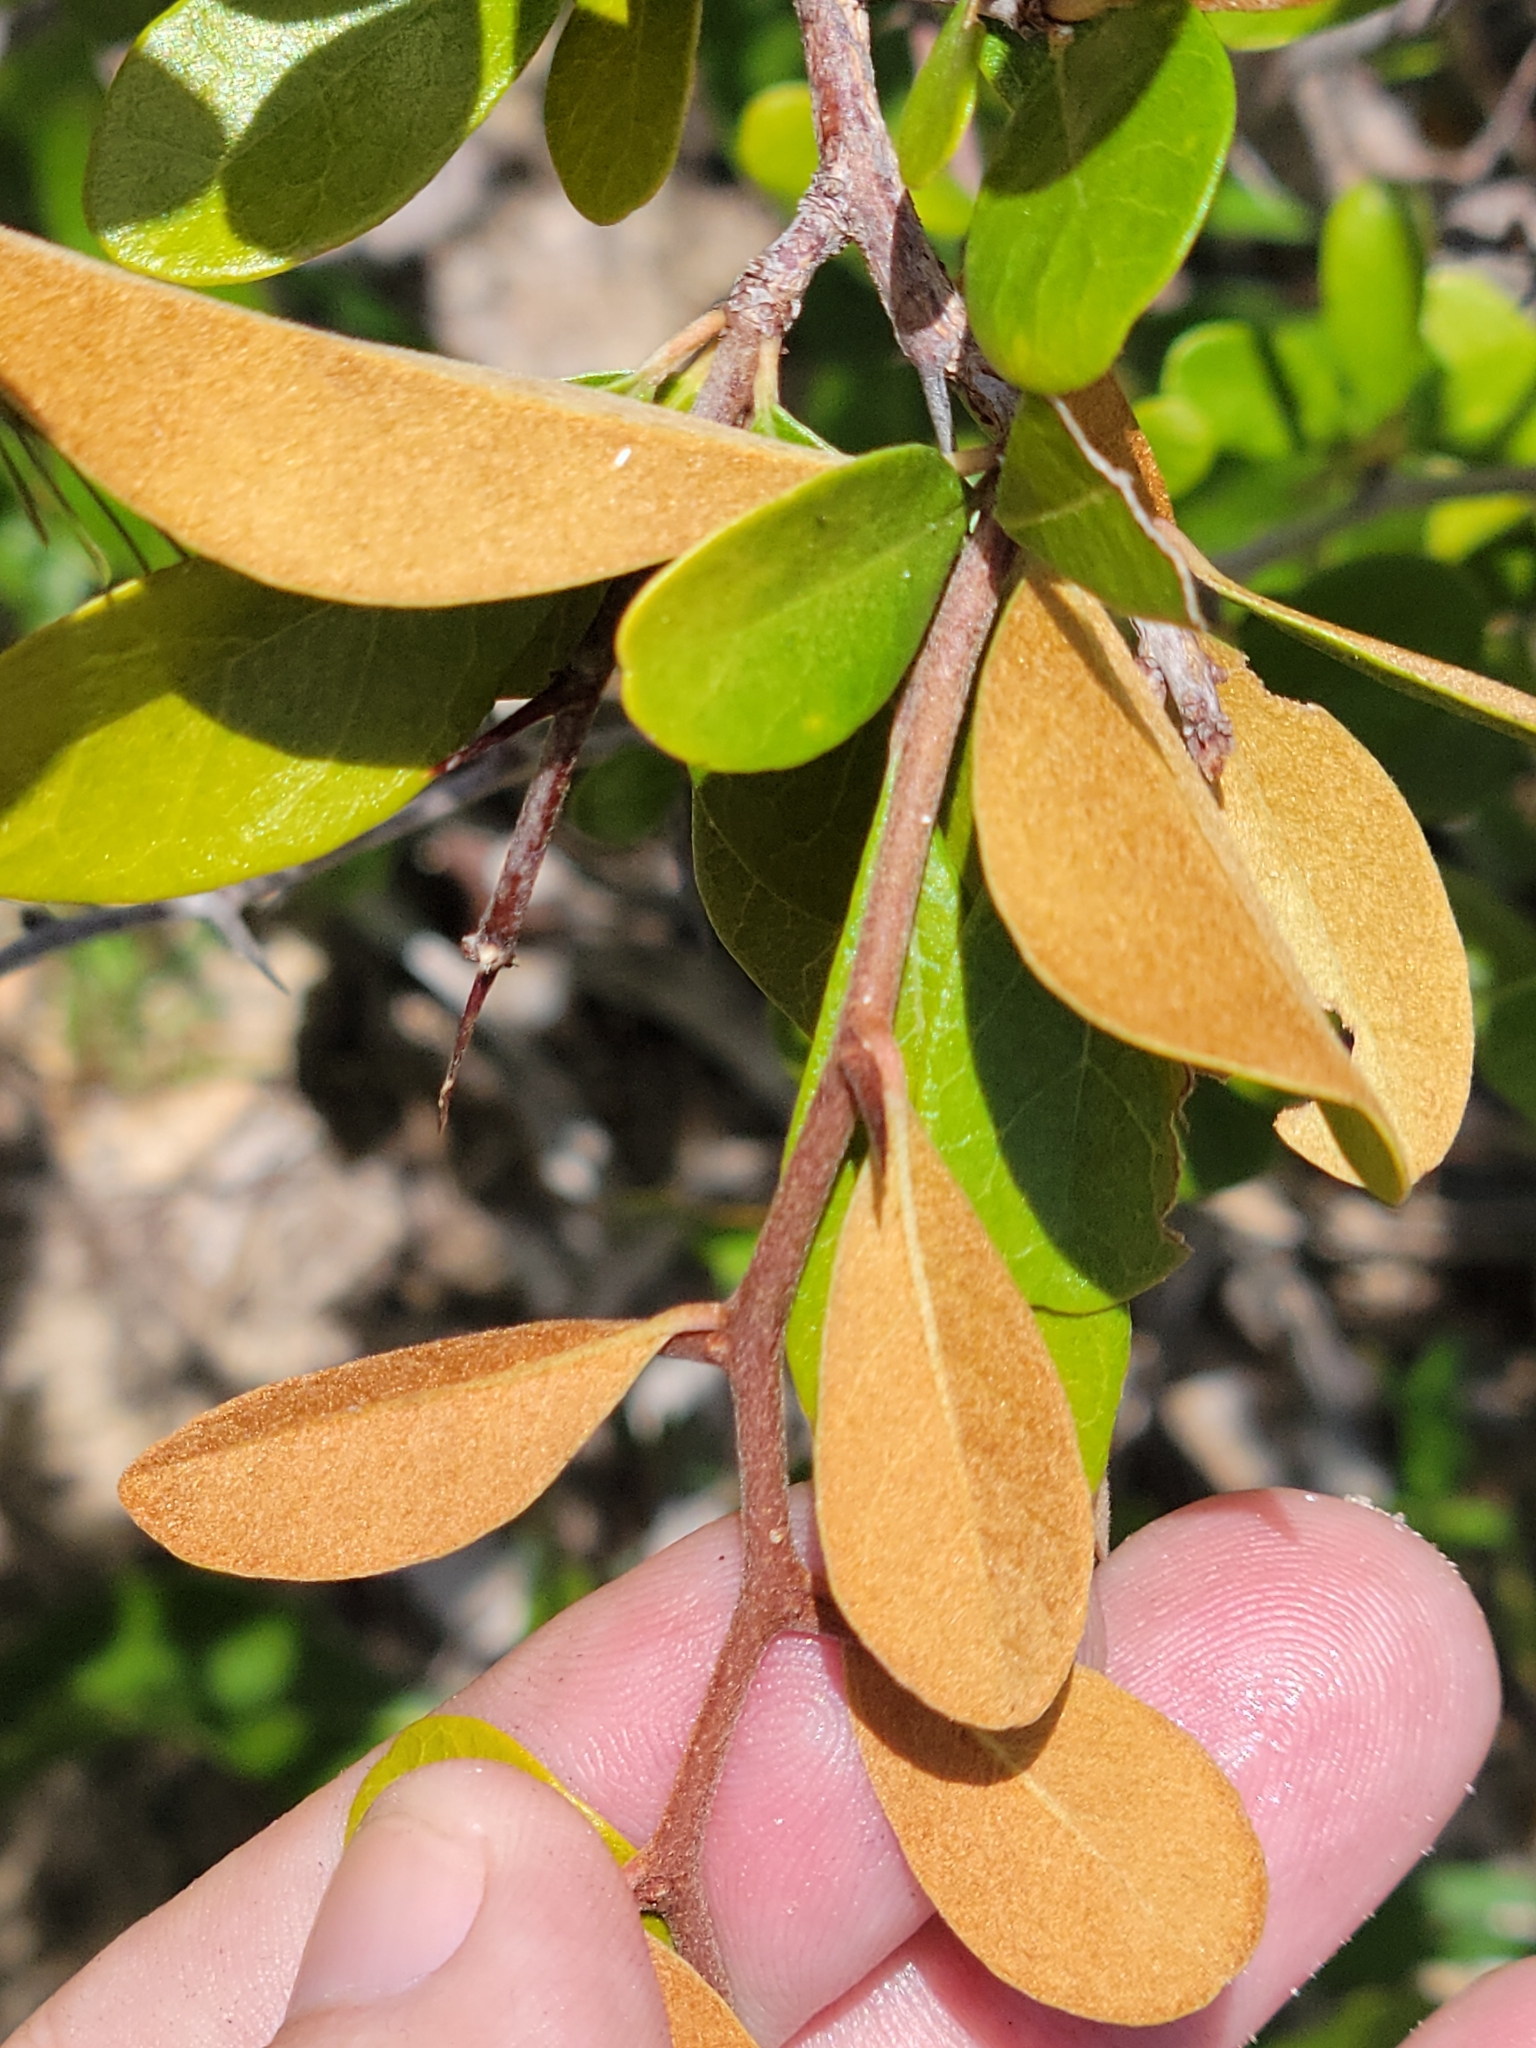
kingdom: Plantae
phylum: Tracheophyta
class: Magnoliopsida
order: Ericales
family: Sapotaceae
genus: Sideroxylon
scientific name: Sideroxylon tenax
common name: Tough-buckthorn
